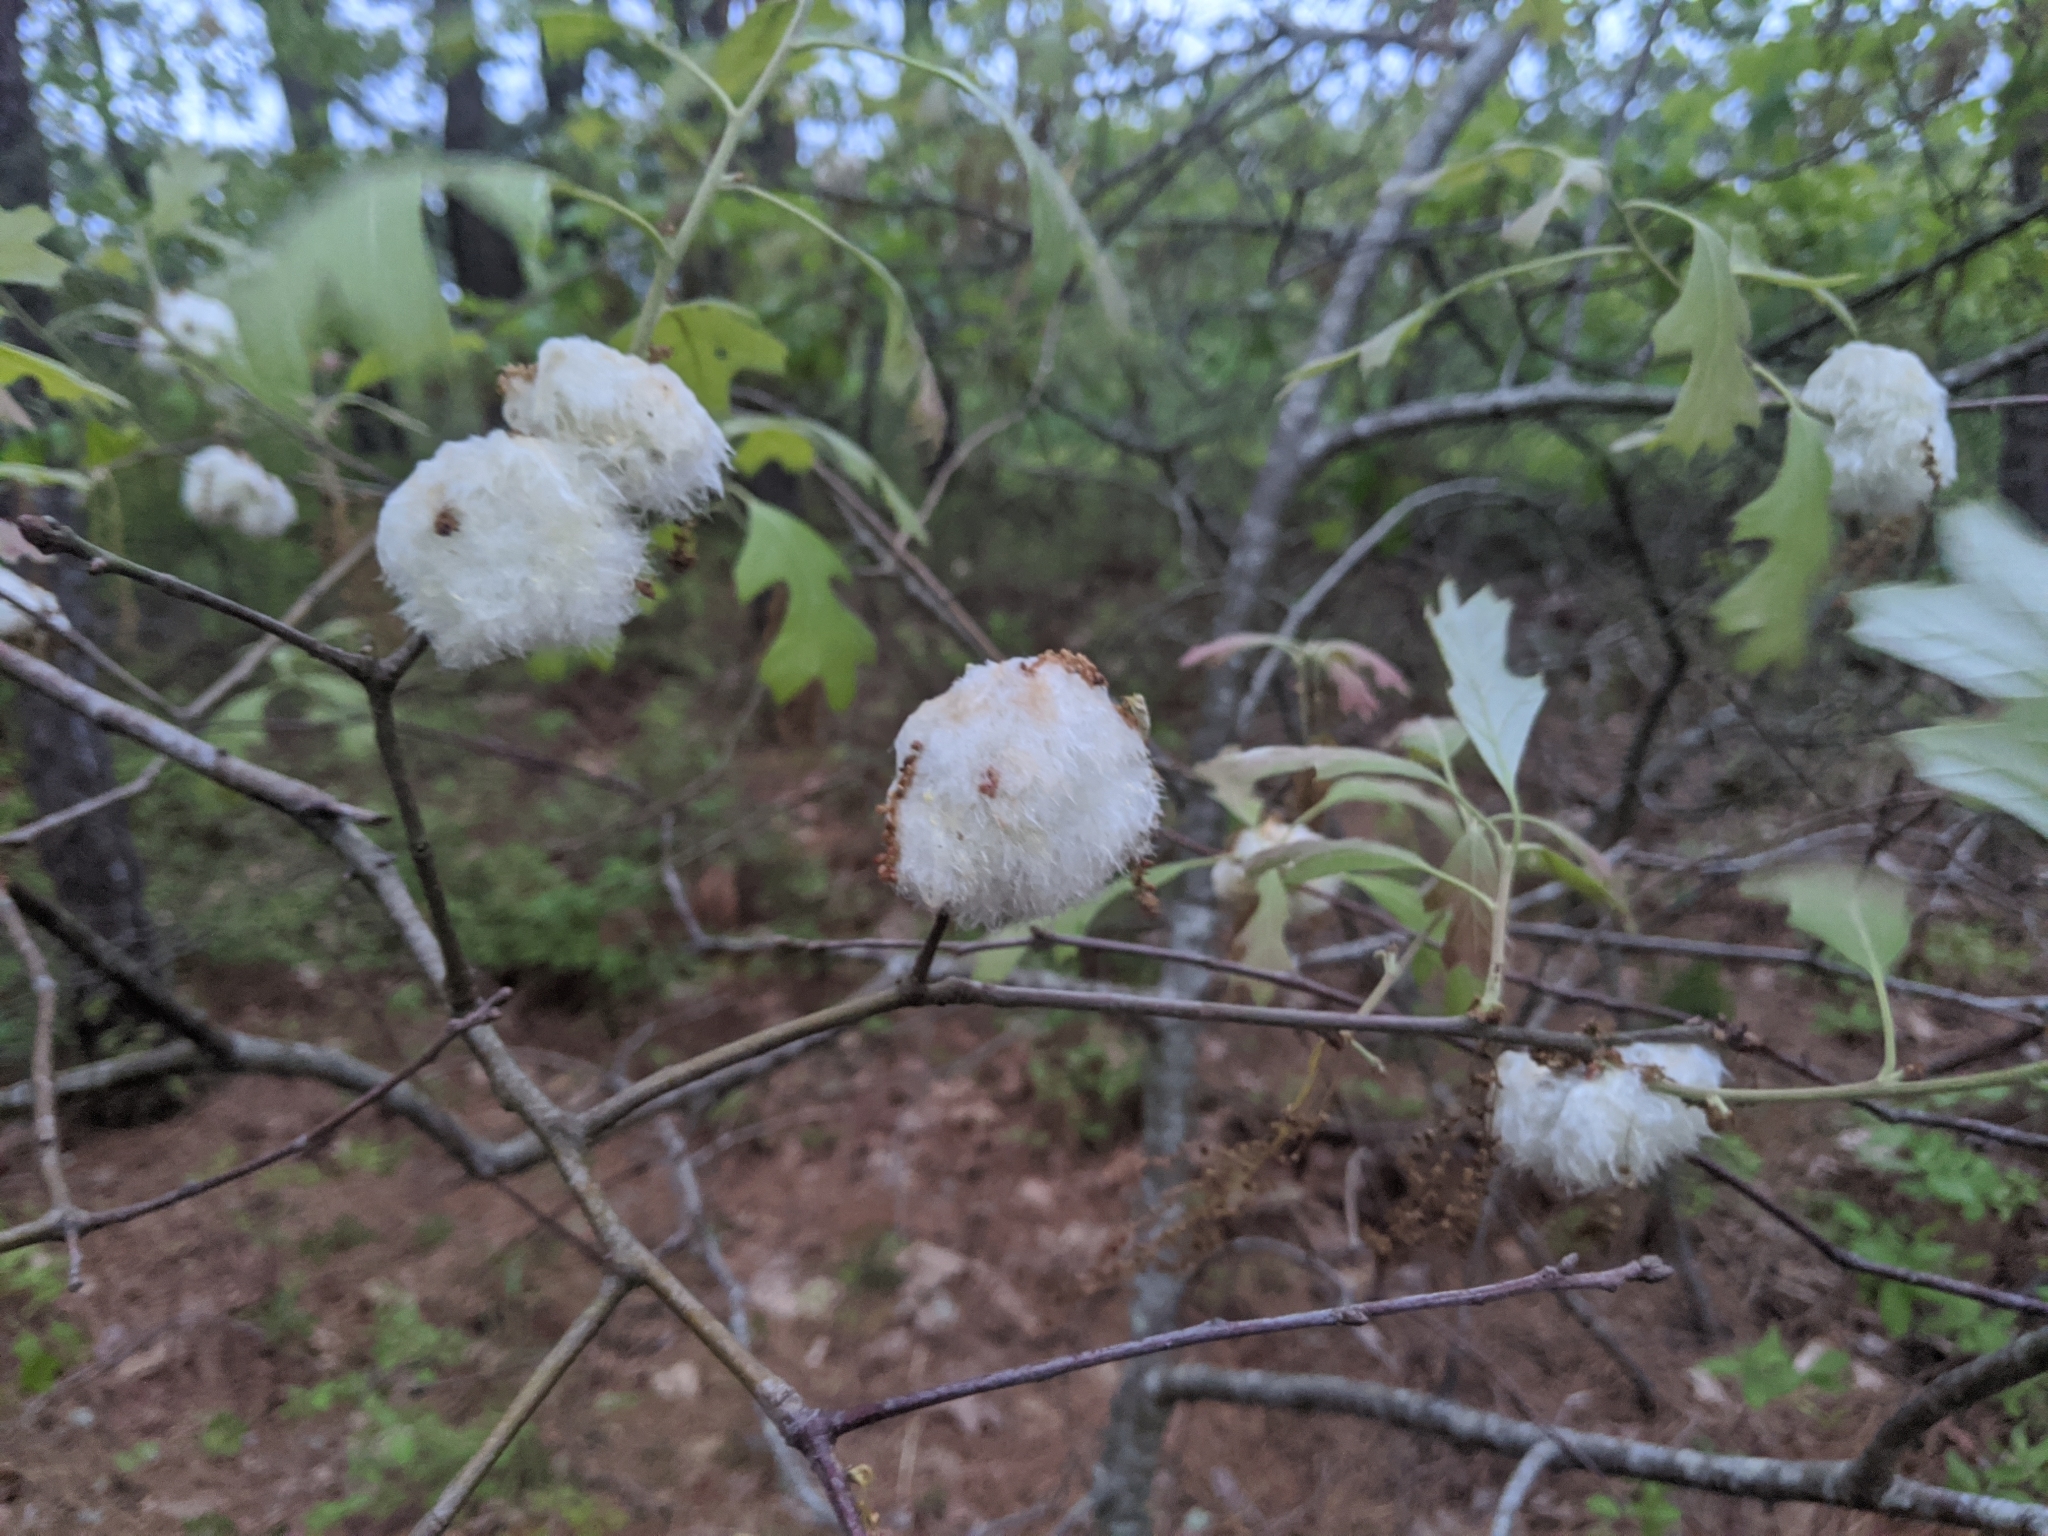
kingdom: Animalia
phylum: Arthropoda
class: Insecta
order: Hymenoptera
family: Cynipidae
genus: Callirhytis
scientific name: Callirhytis
